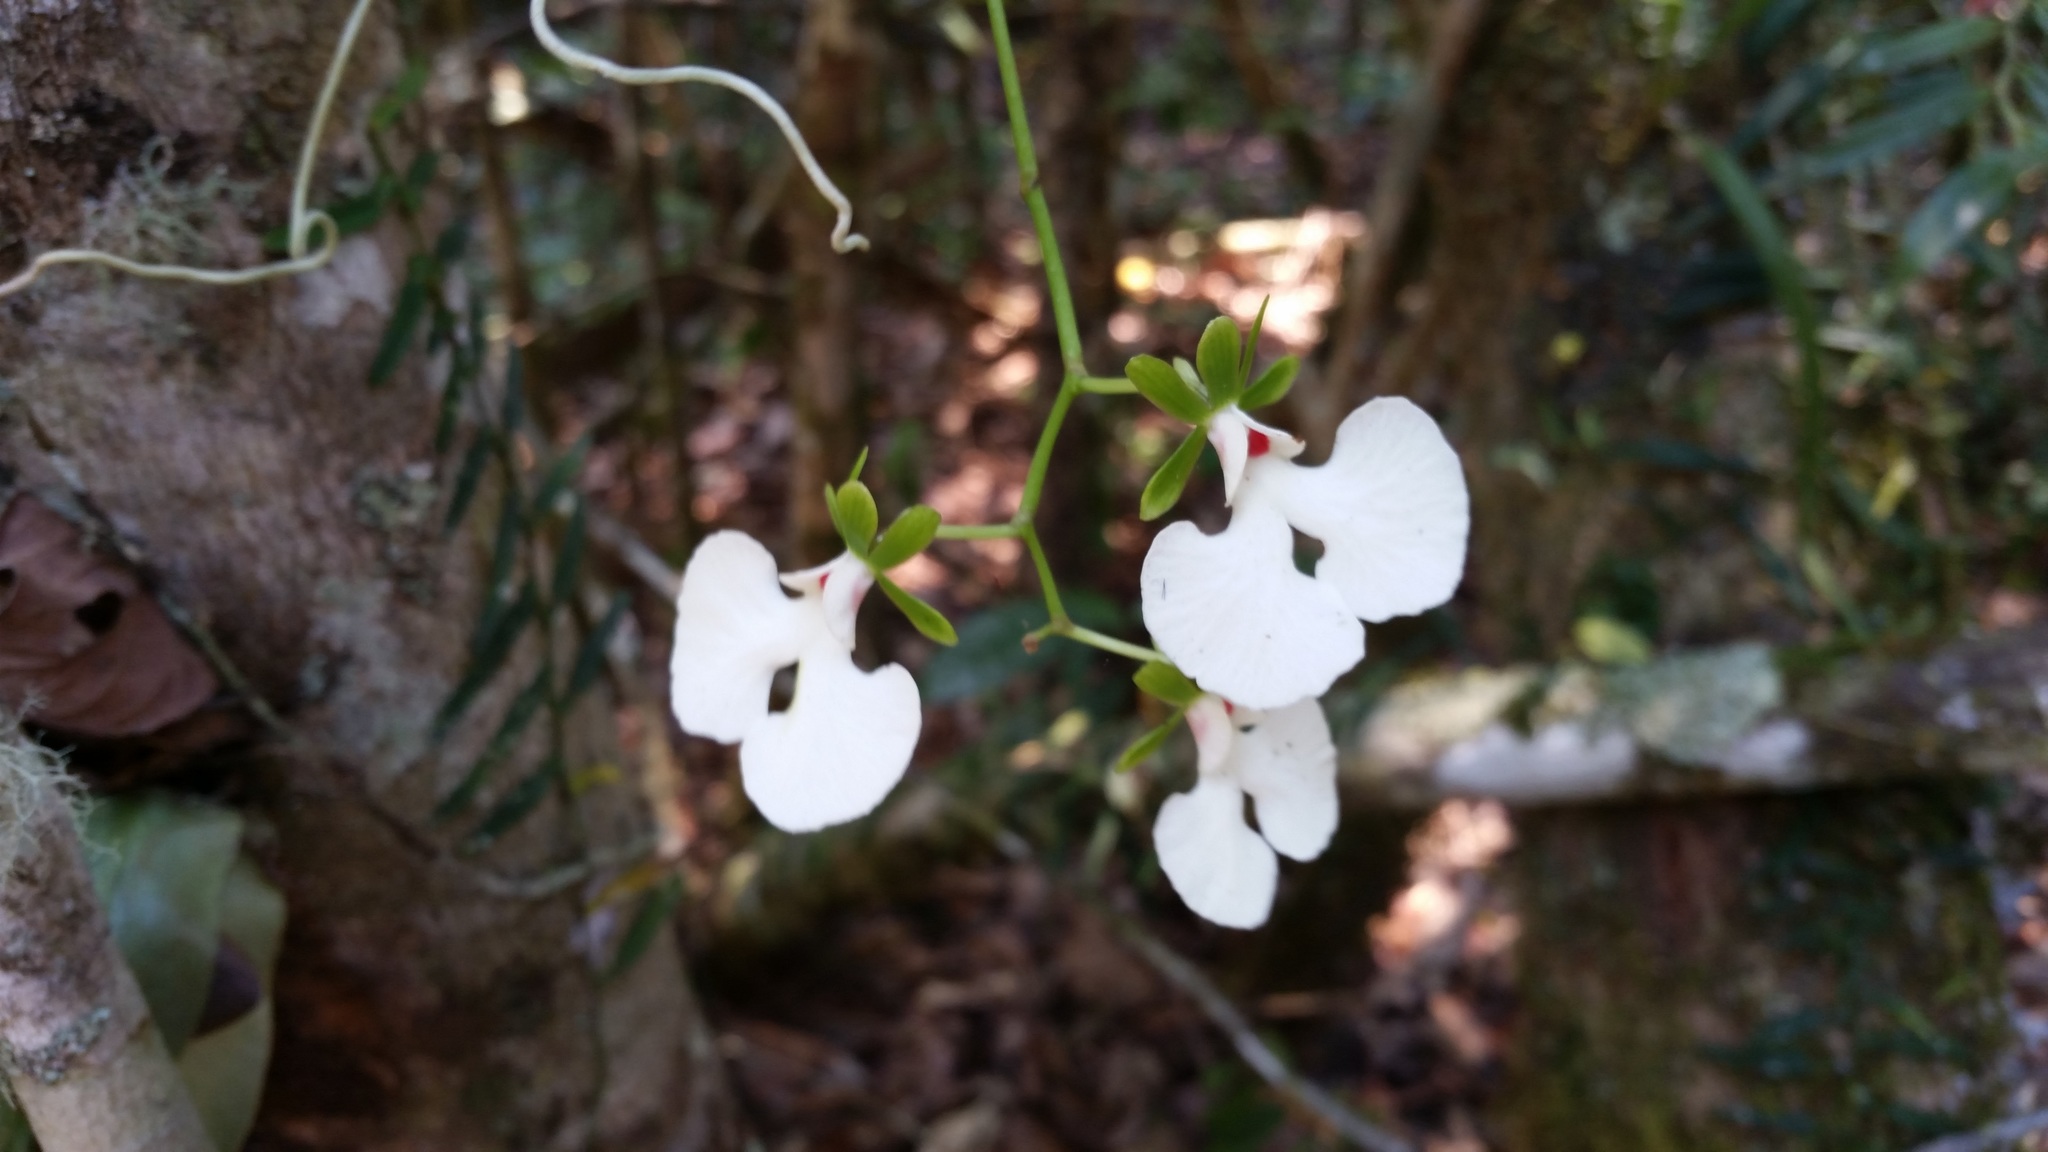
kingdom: Plantae
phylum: Tracheophyta
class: Liliopsida
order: Asparagales
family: Orchidaceae
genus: Oeonia
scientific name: Oeonia rosea
